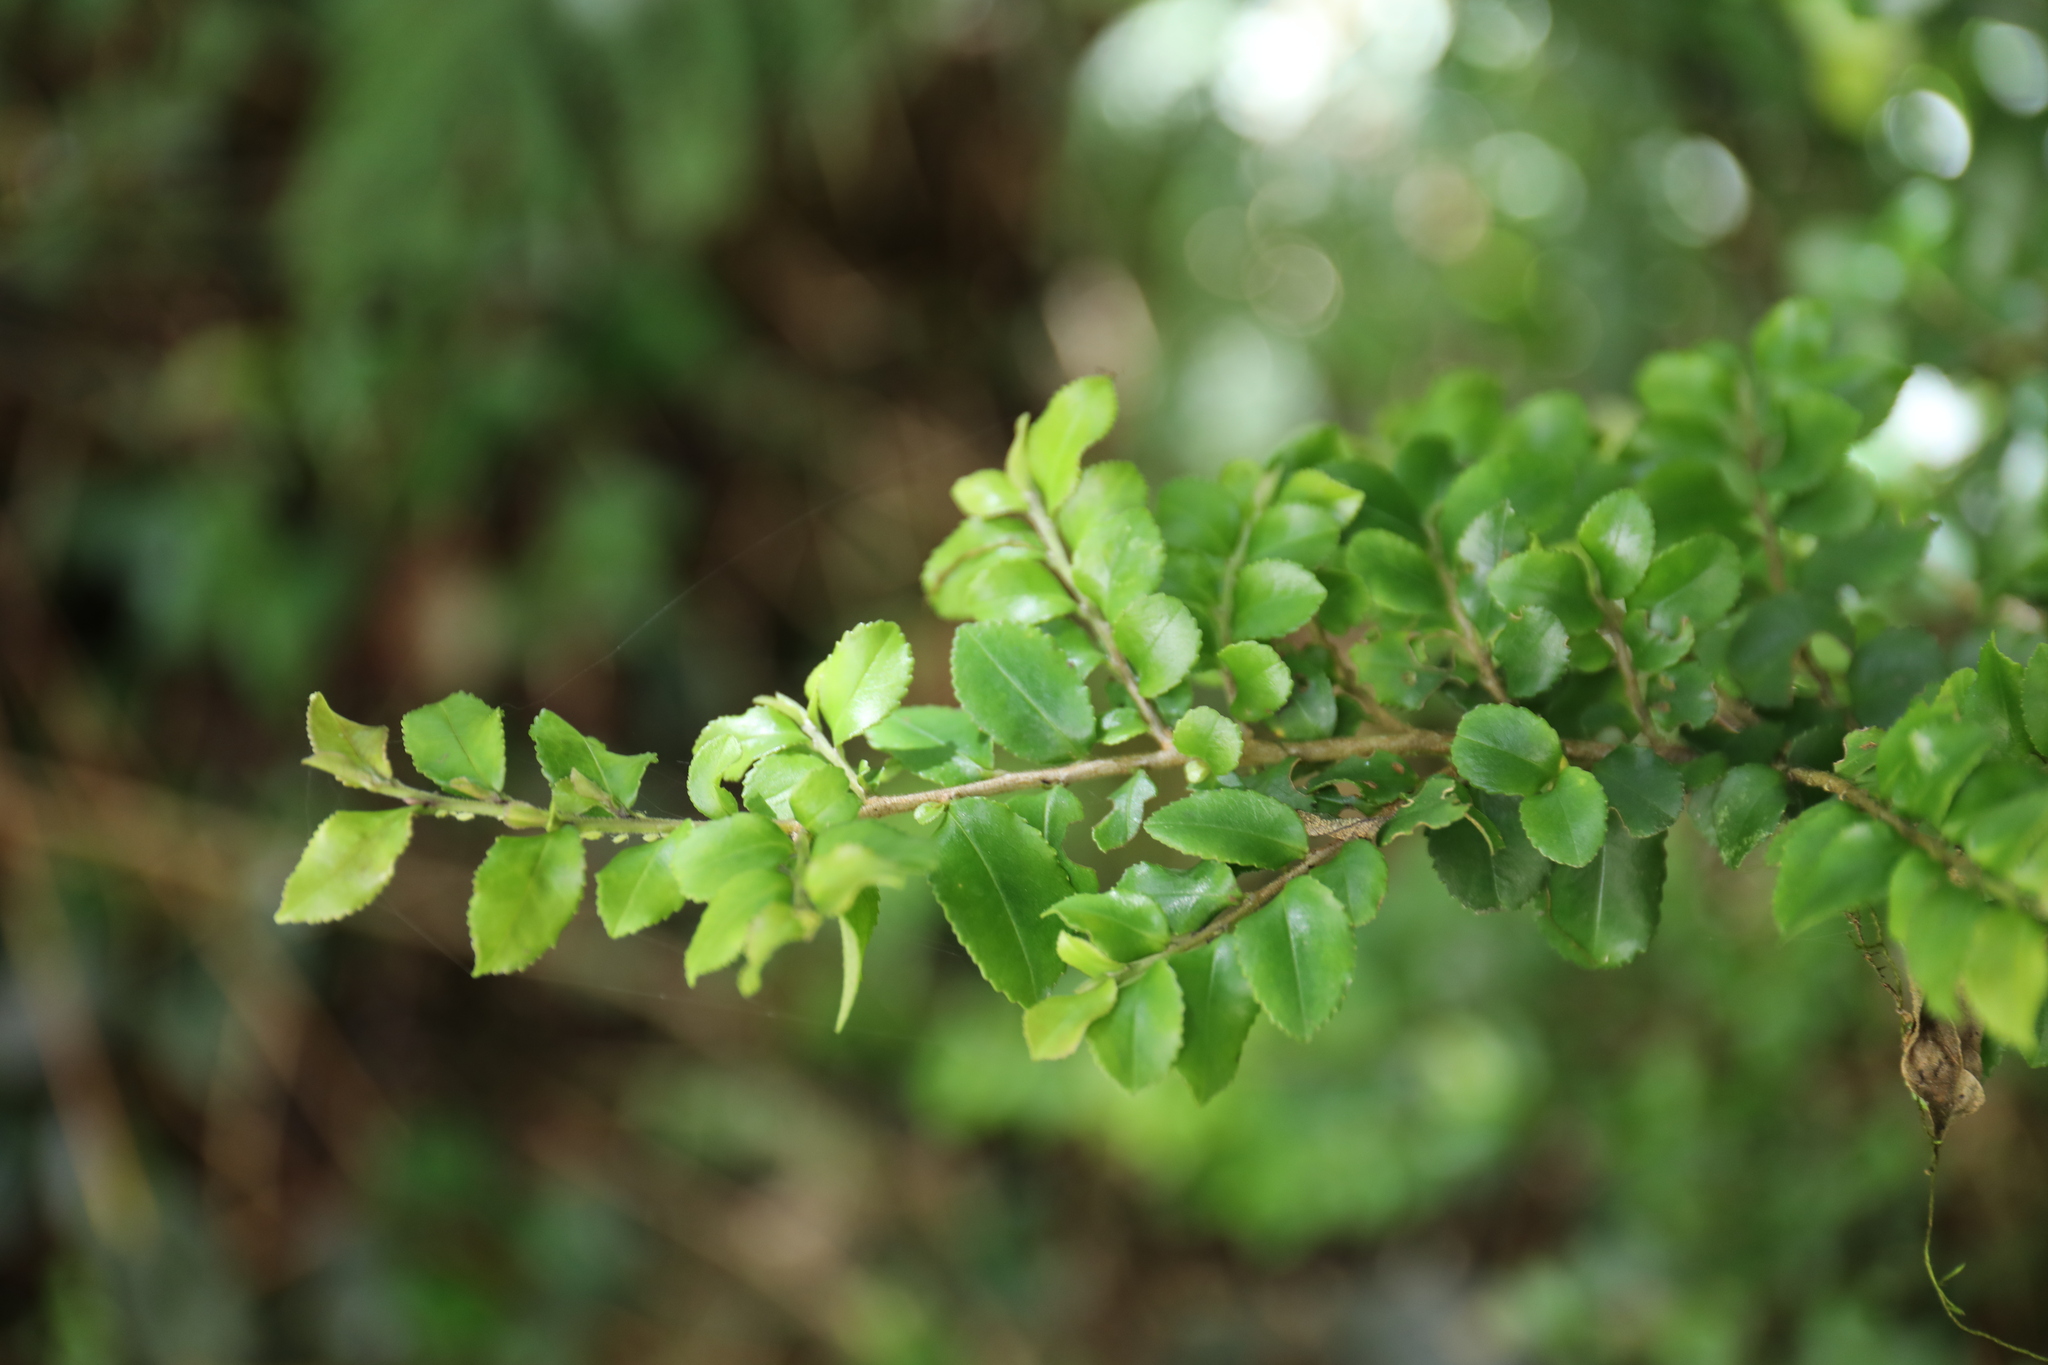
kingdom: Plantae
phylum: Tracheophyta
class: Magnoliopsida
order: Ericales
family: Pentaphylacaceae
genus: Eurya
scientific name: Eurya crenatifolia
